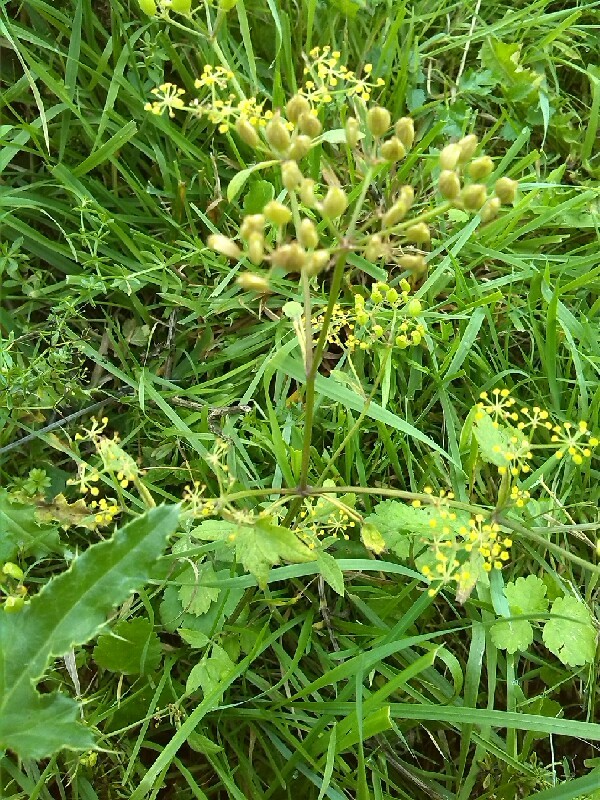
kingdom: Plantae
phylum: Tracheophyta
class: Magnoliopsida
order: Apiales
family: Apiaceae
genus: Pastinaca
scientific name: Pastinaca sativa
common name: Wild parsnip
